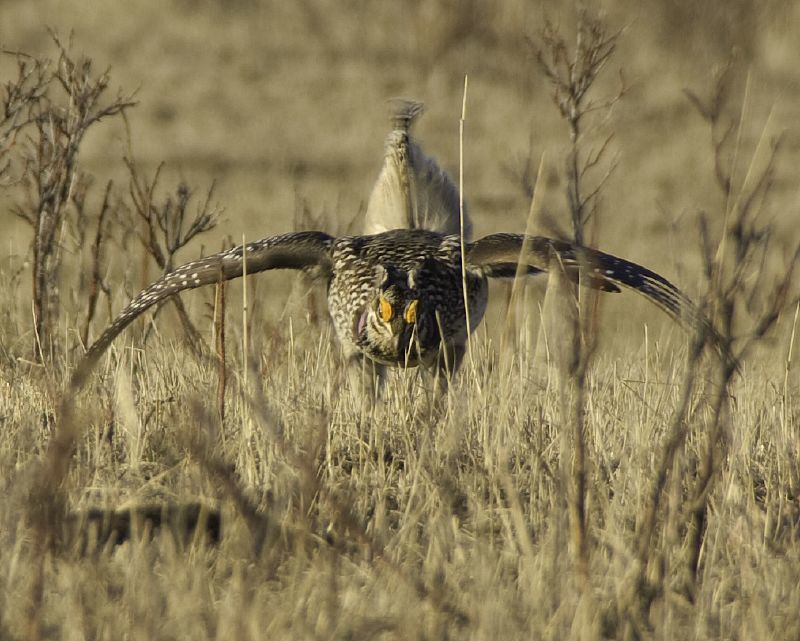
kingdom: Animalia
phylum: Chordata
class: Aves
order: Galliformes
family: Phasianidae
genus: Tympanuchus
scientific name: Tympanuchus phasianellus
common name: Sharp-tailed grouse
